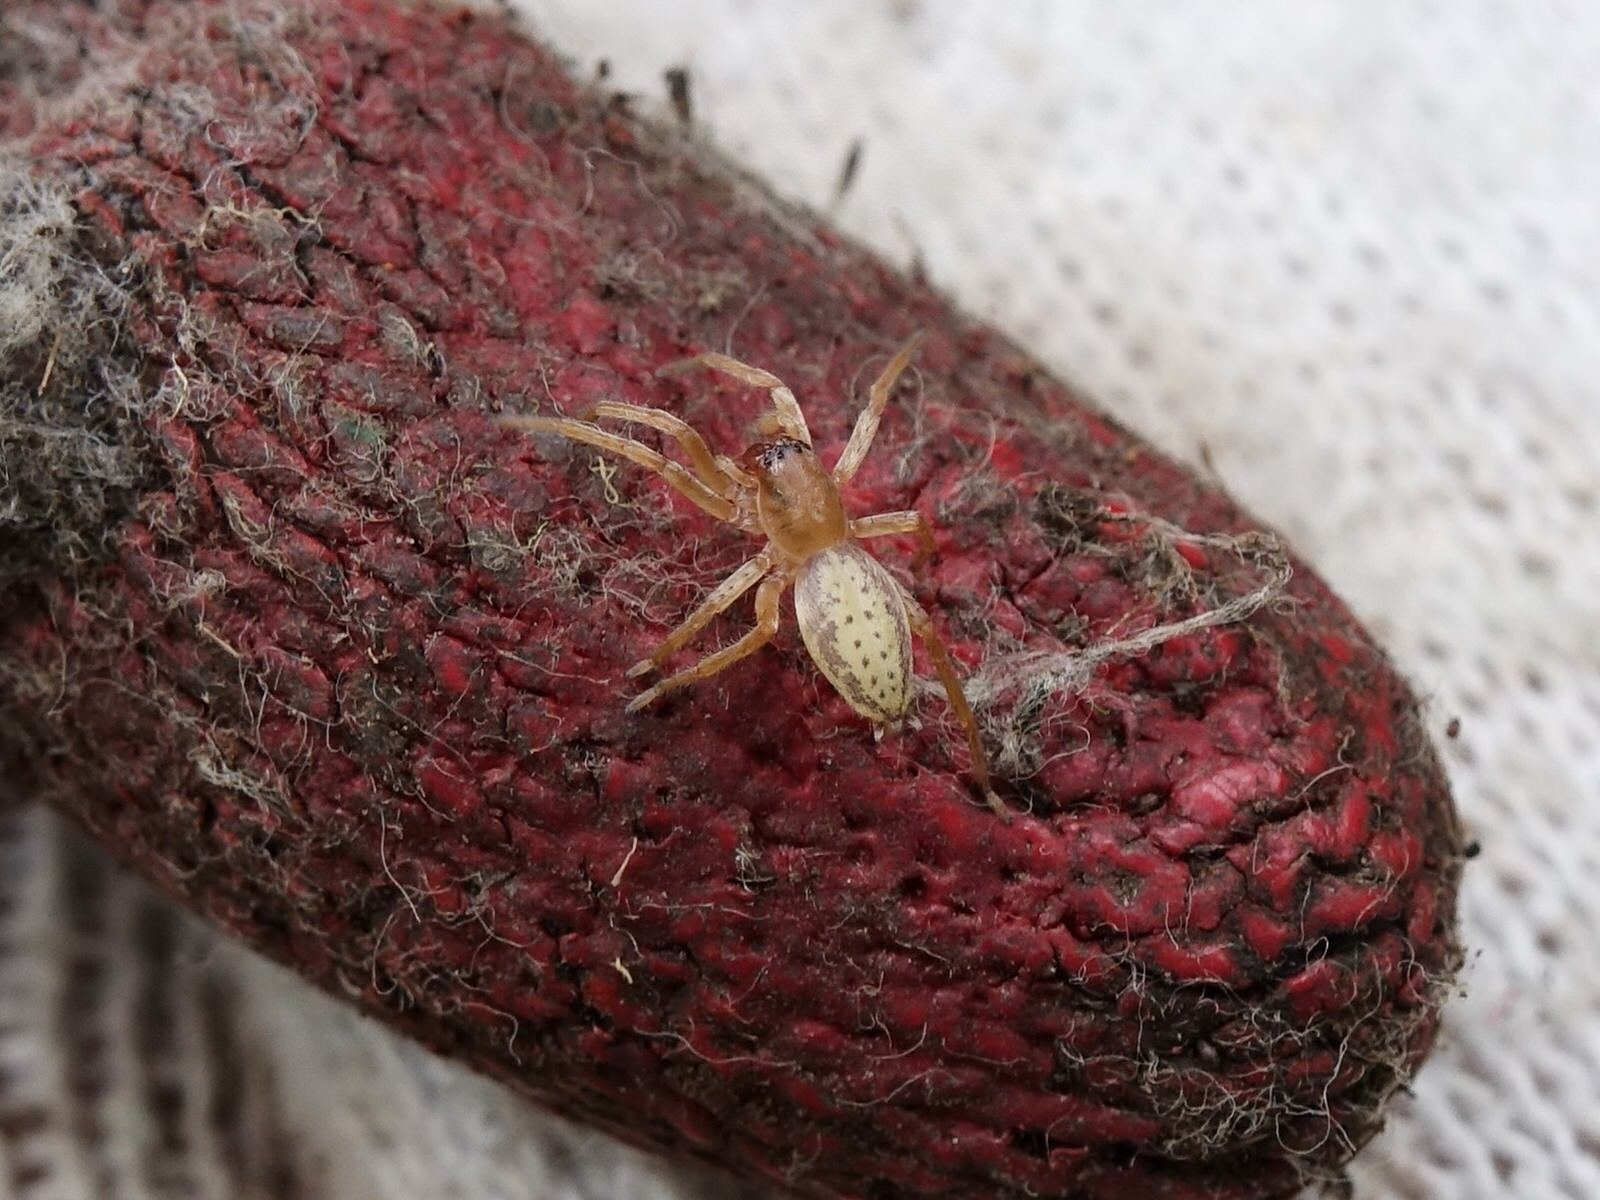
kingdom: Animalia
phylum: Arthropoda
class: Arachnida
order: Araneae
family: Clubionidae
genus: Clubiona
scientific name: Clubiona peculiaris
